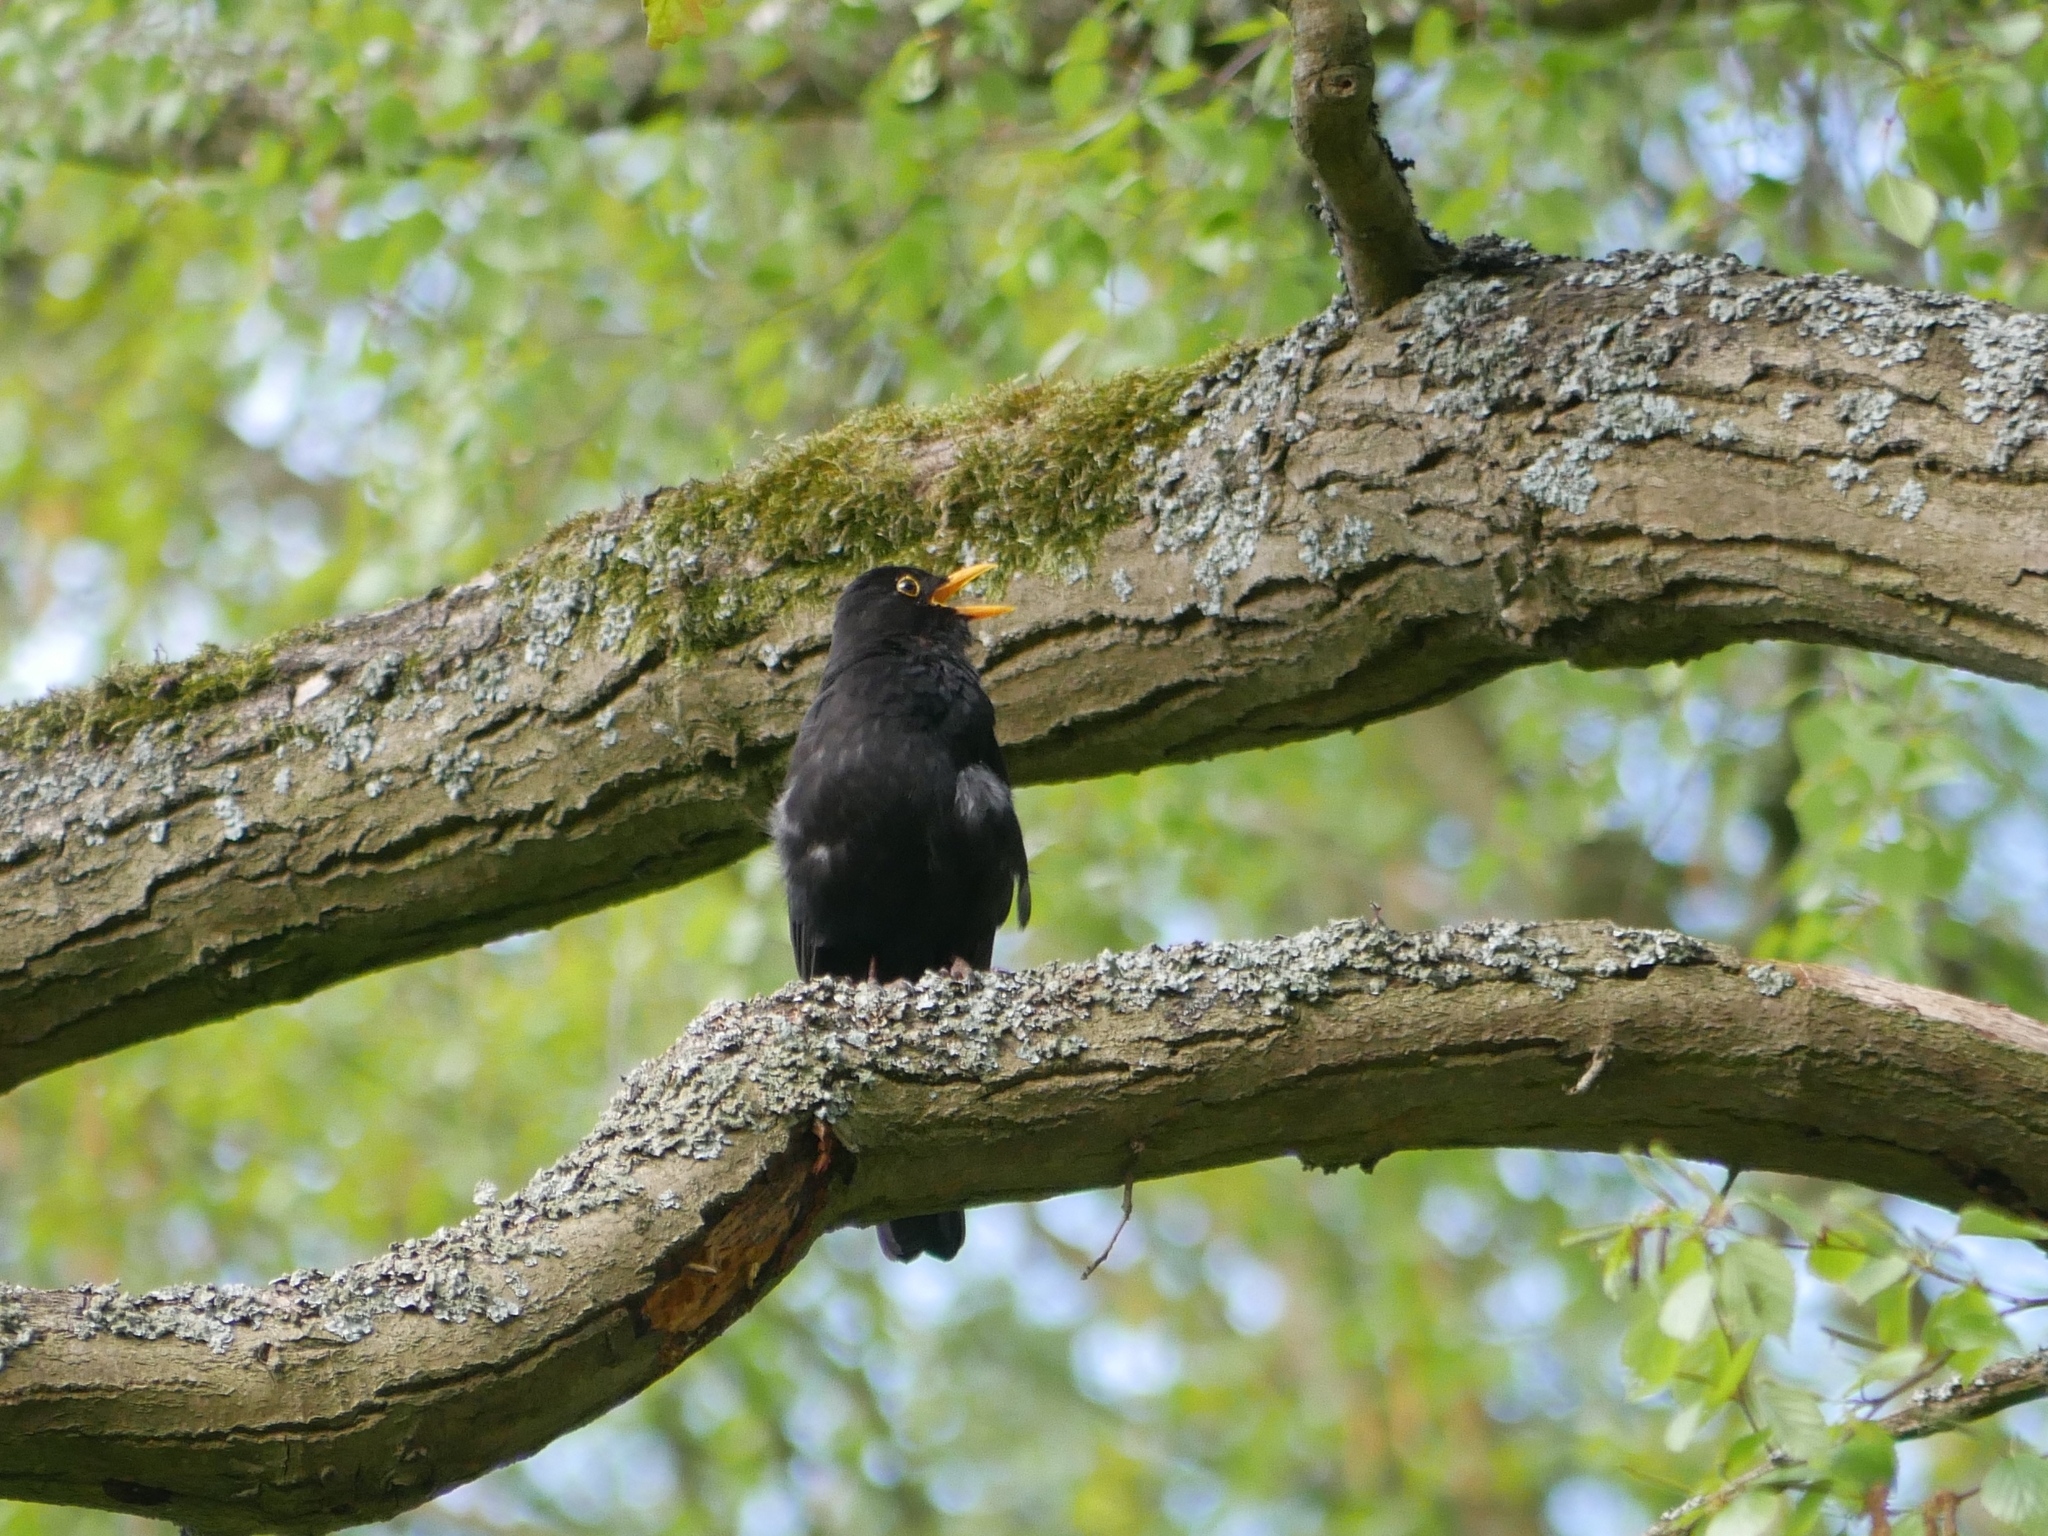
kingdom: Animalia
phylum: Chordata
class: Aves
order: Passeriformes
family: Turdidae
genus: Turdus
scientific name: Turdus merula
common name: Common blackbird
